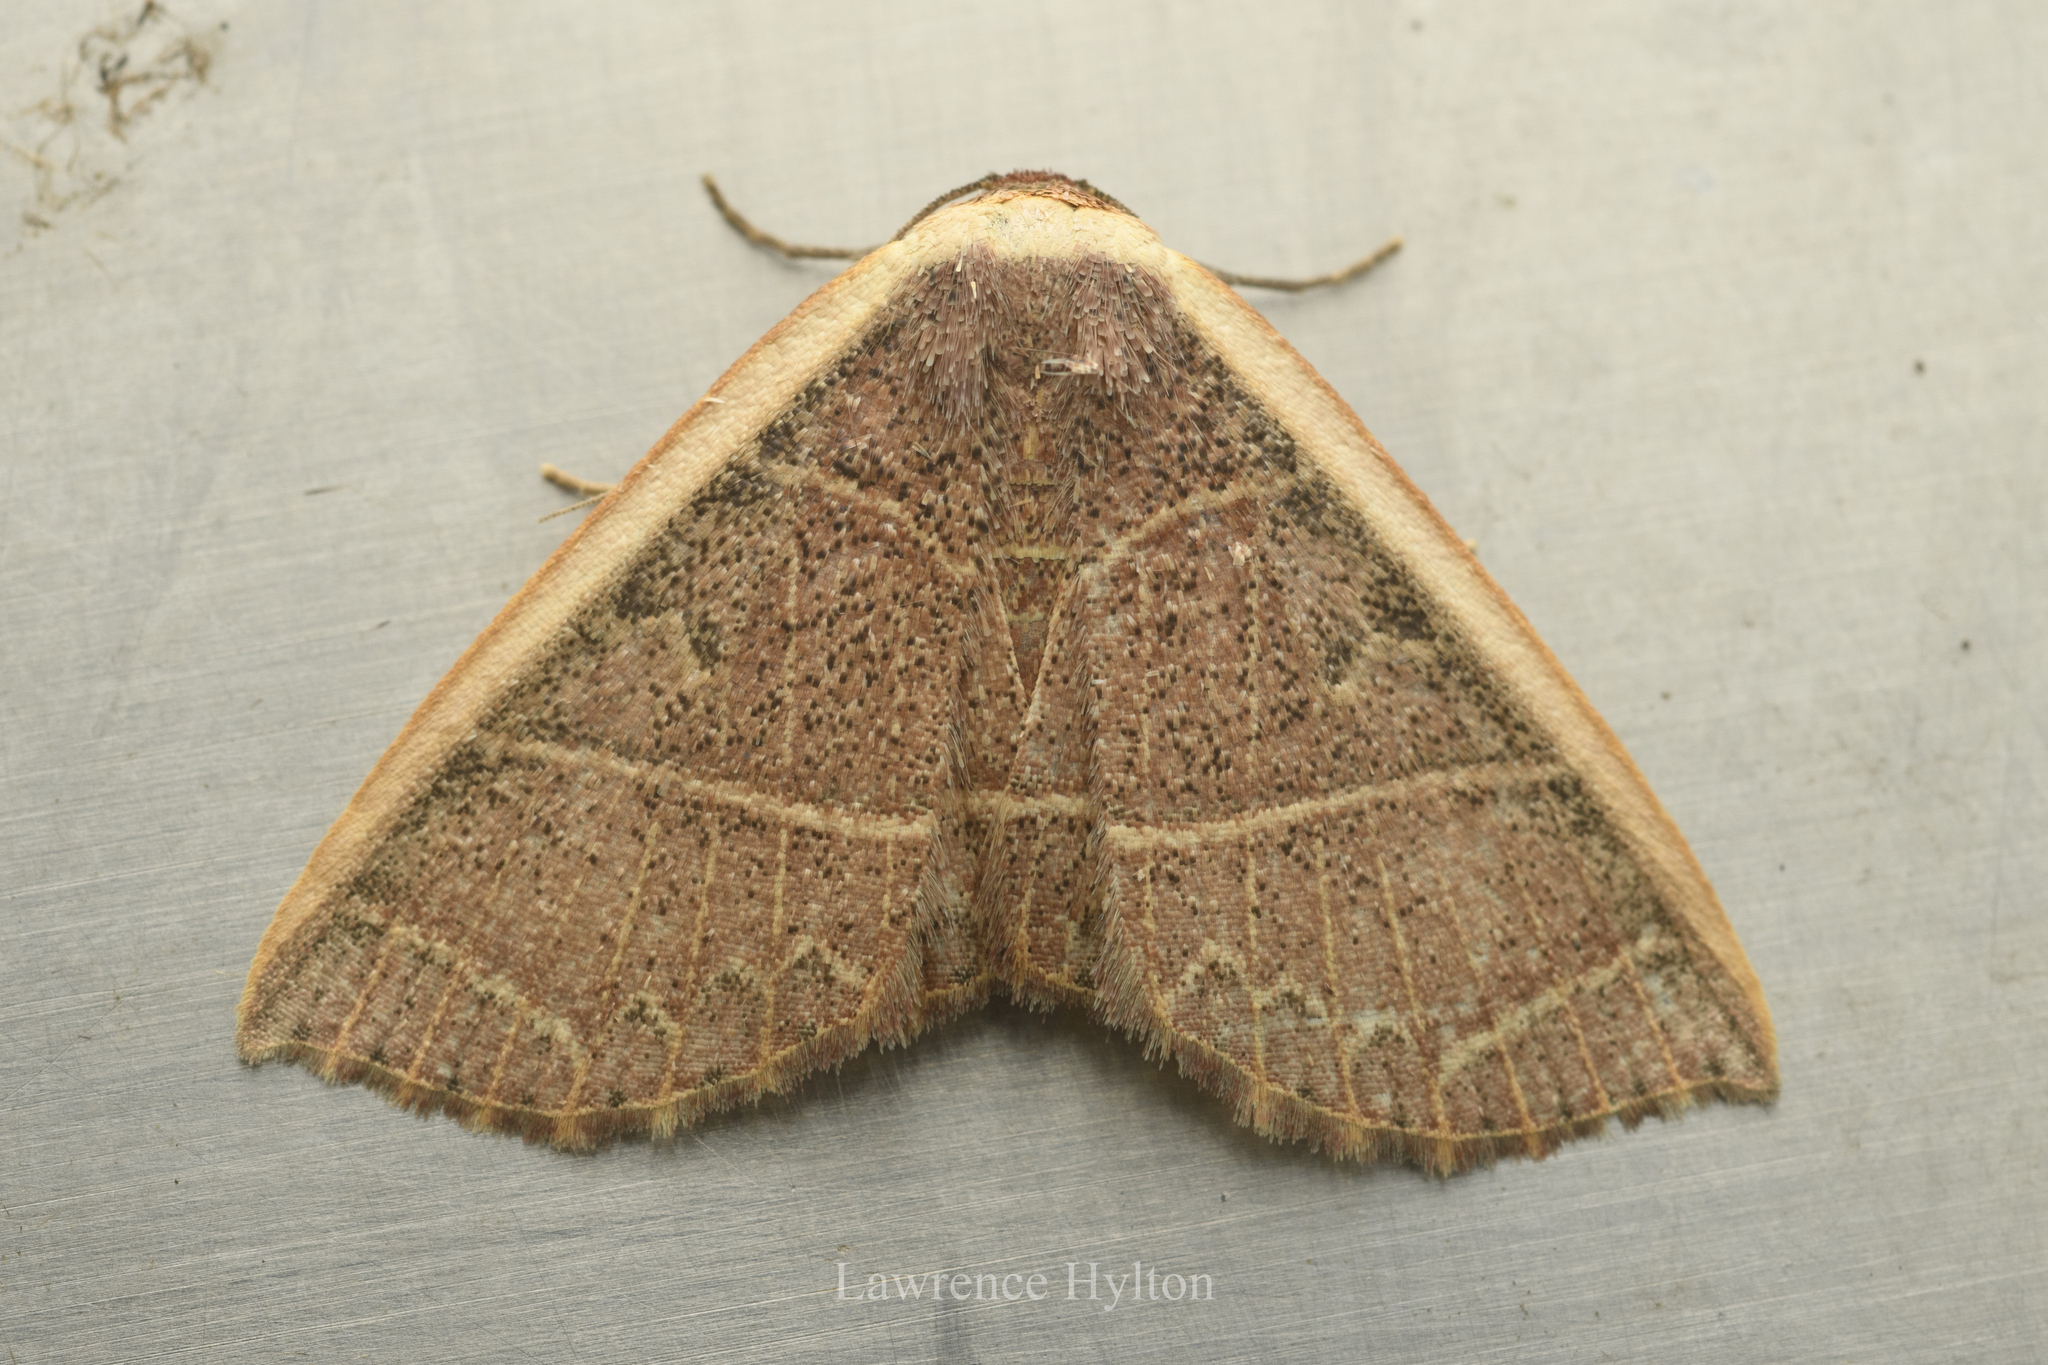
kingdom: Animalia
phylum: Arthropoda
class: Insecta
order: Lepidoptera
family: Noctuidae
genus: Oruza
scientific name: Oruza mira
